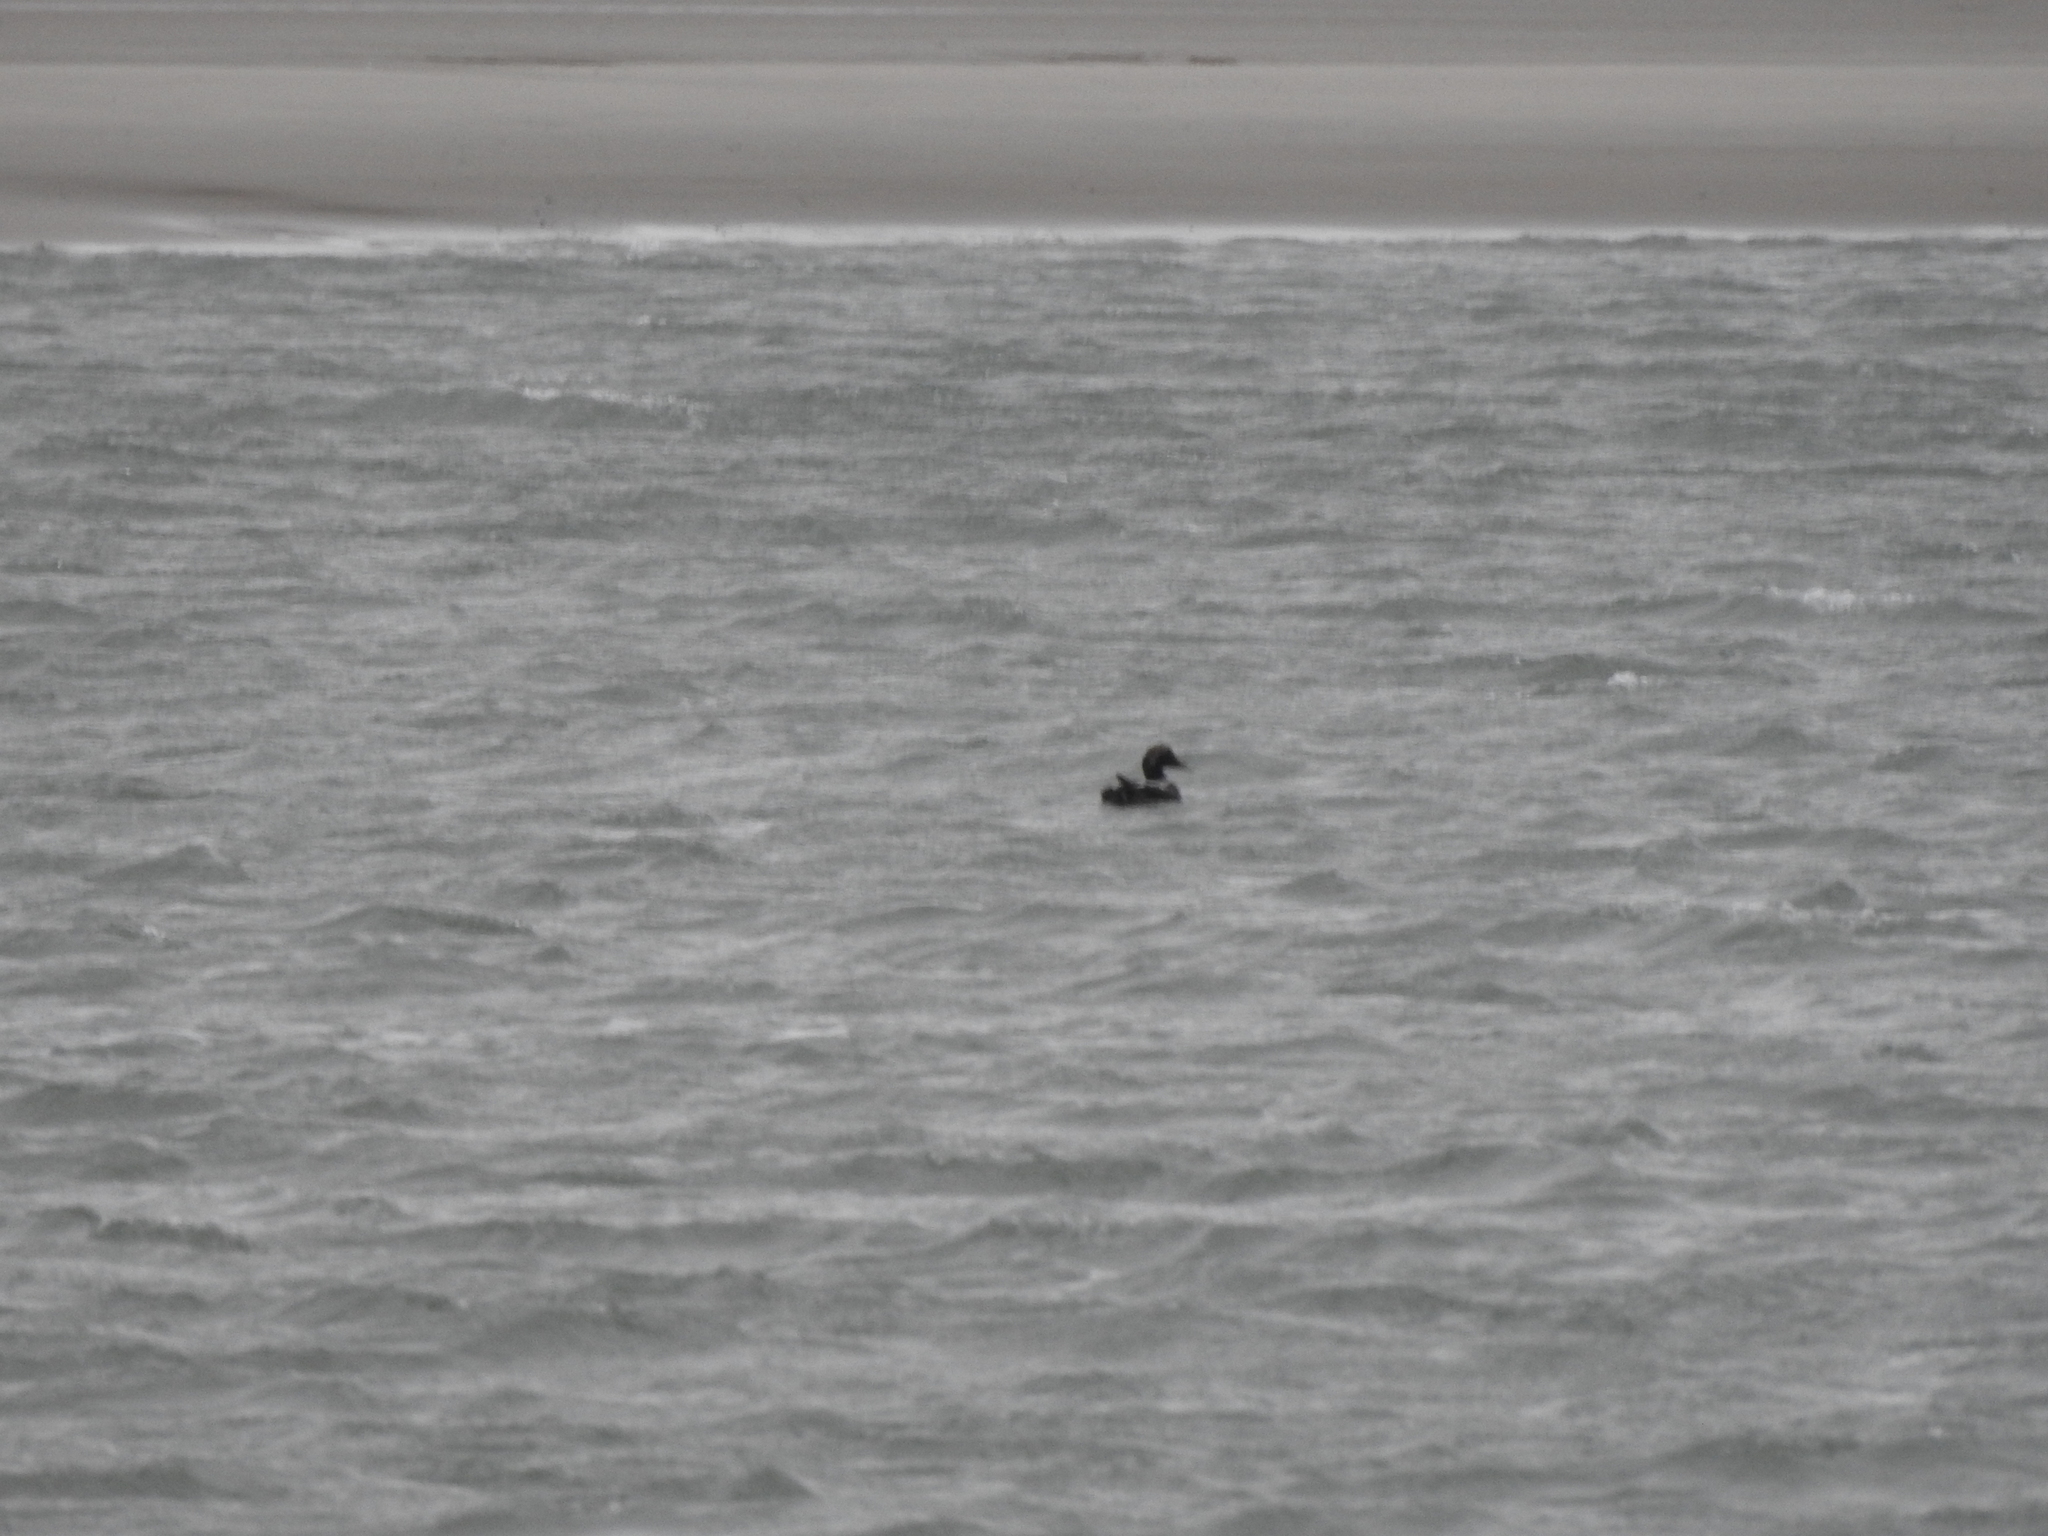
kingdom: Animalia
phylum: Chordata
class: Aves
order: Anseriformes
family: Anatidae
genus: Somateria
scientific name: Somateria mollissima
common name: Common eider
